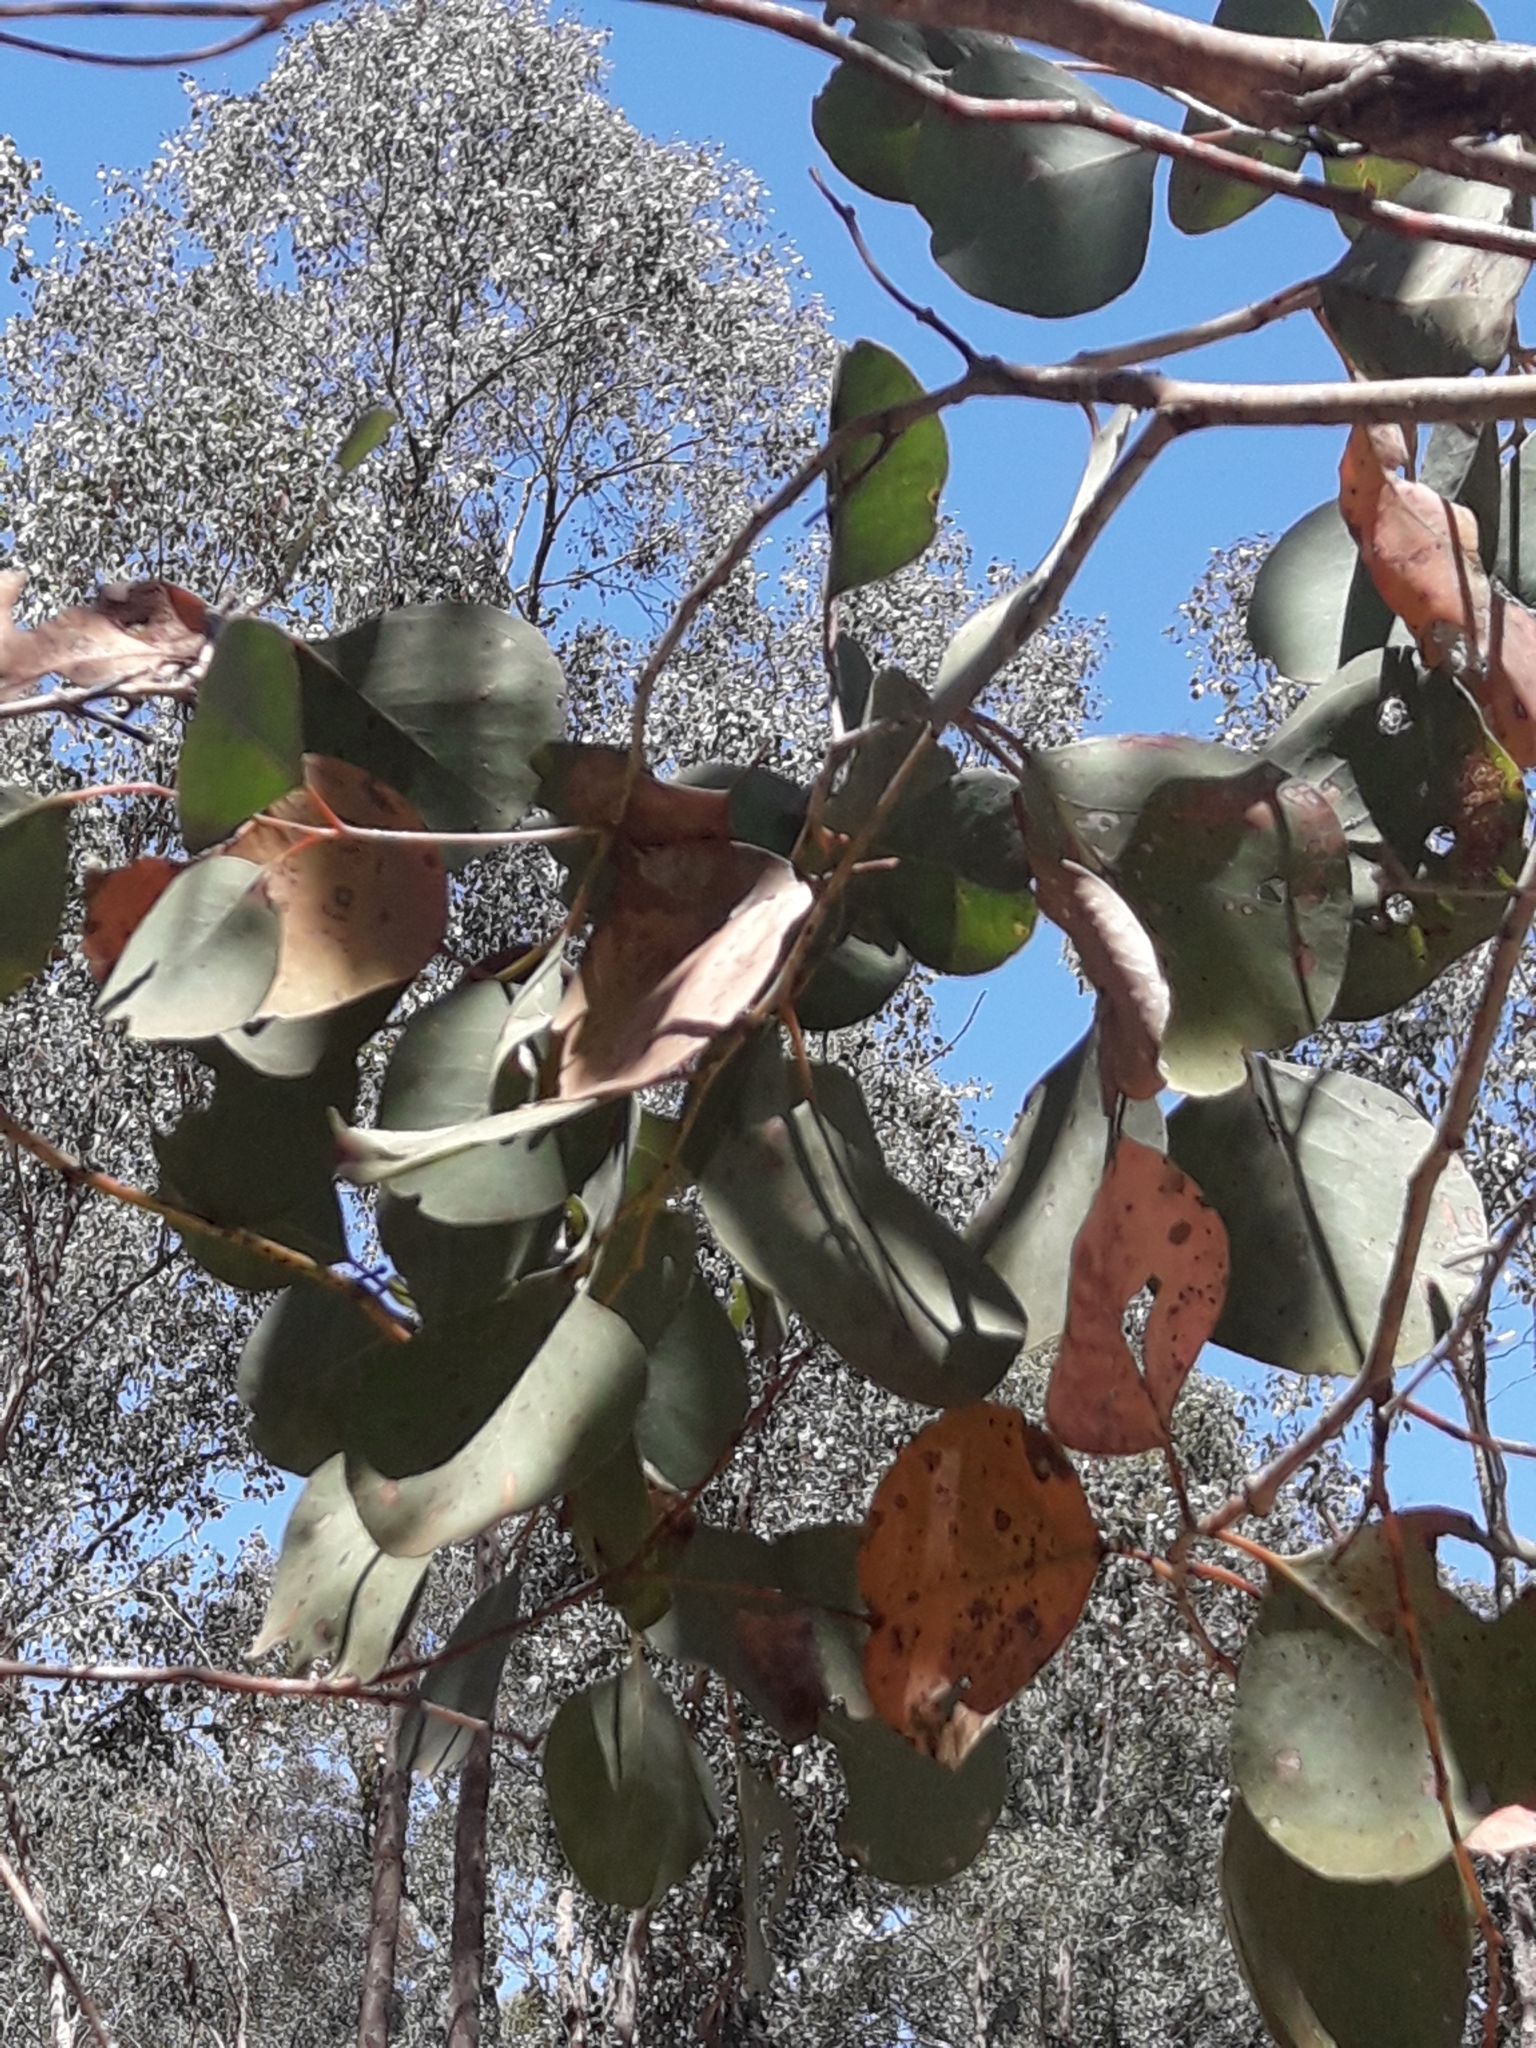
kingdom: Plantae
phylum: Tracheophyta
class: Magnoliopsida
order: Myrtales
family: Myrtaceae
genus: Eucalyptus
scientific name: Eucalyptus polyanthemos
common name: Red-box
